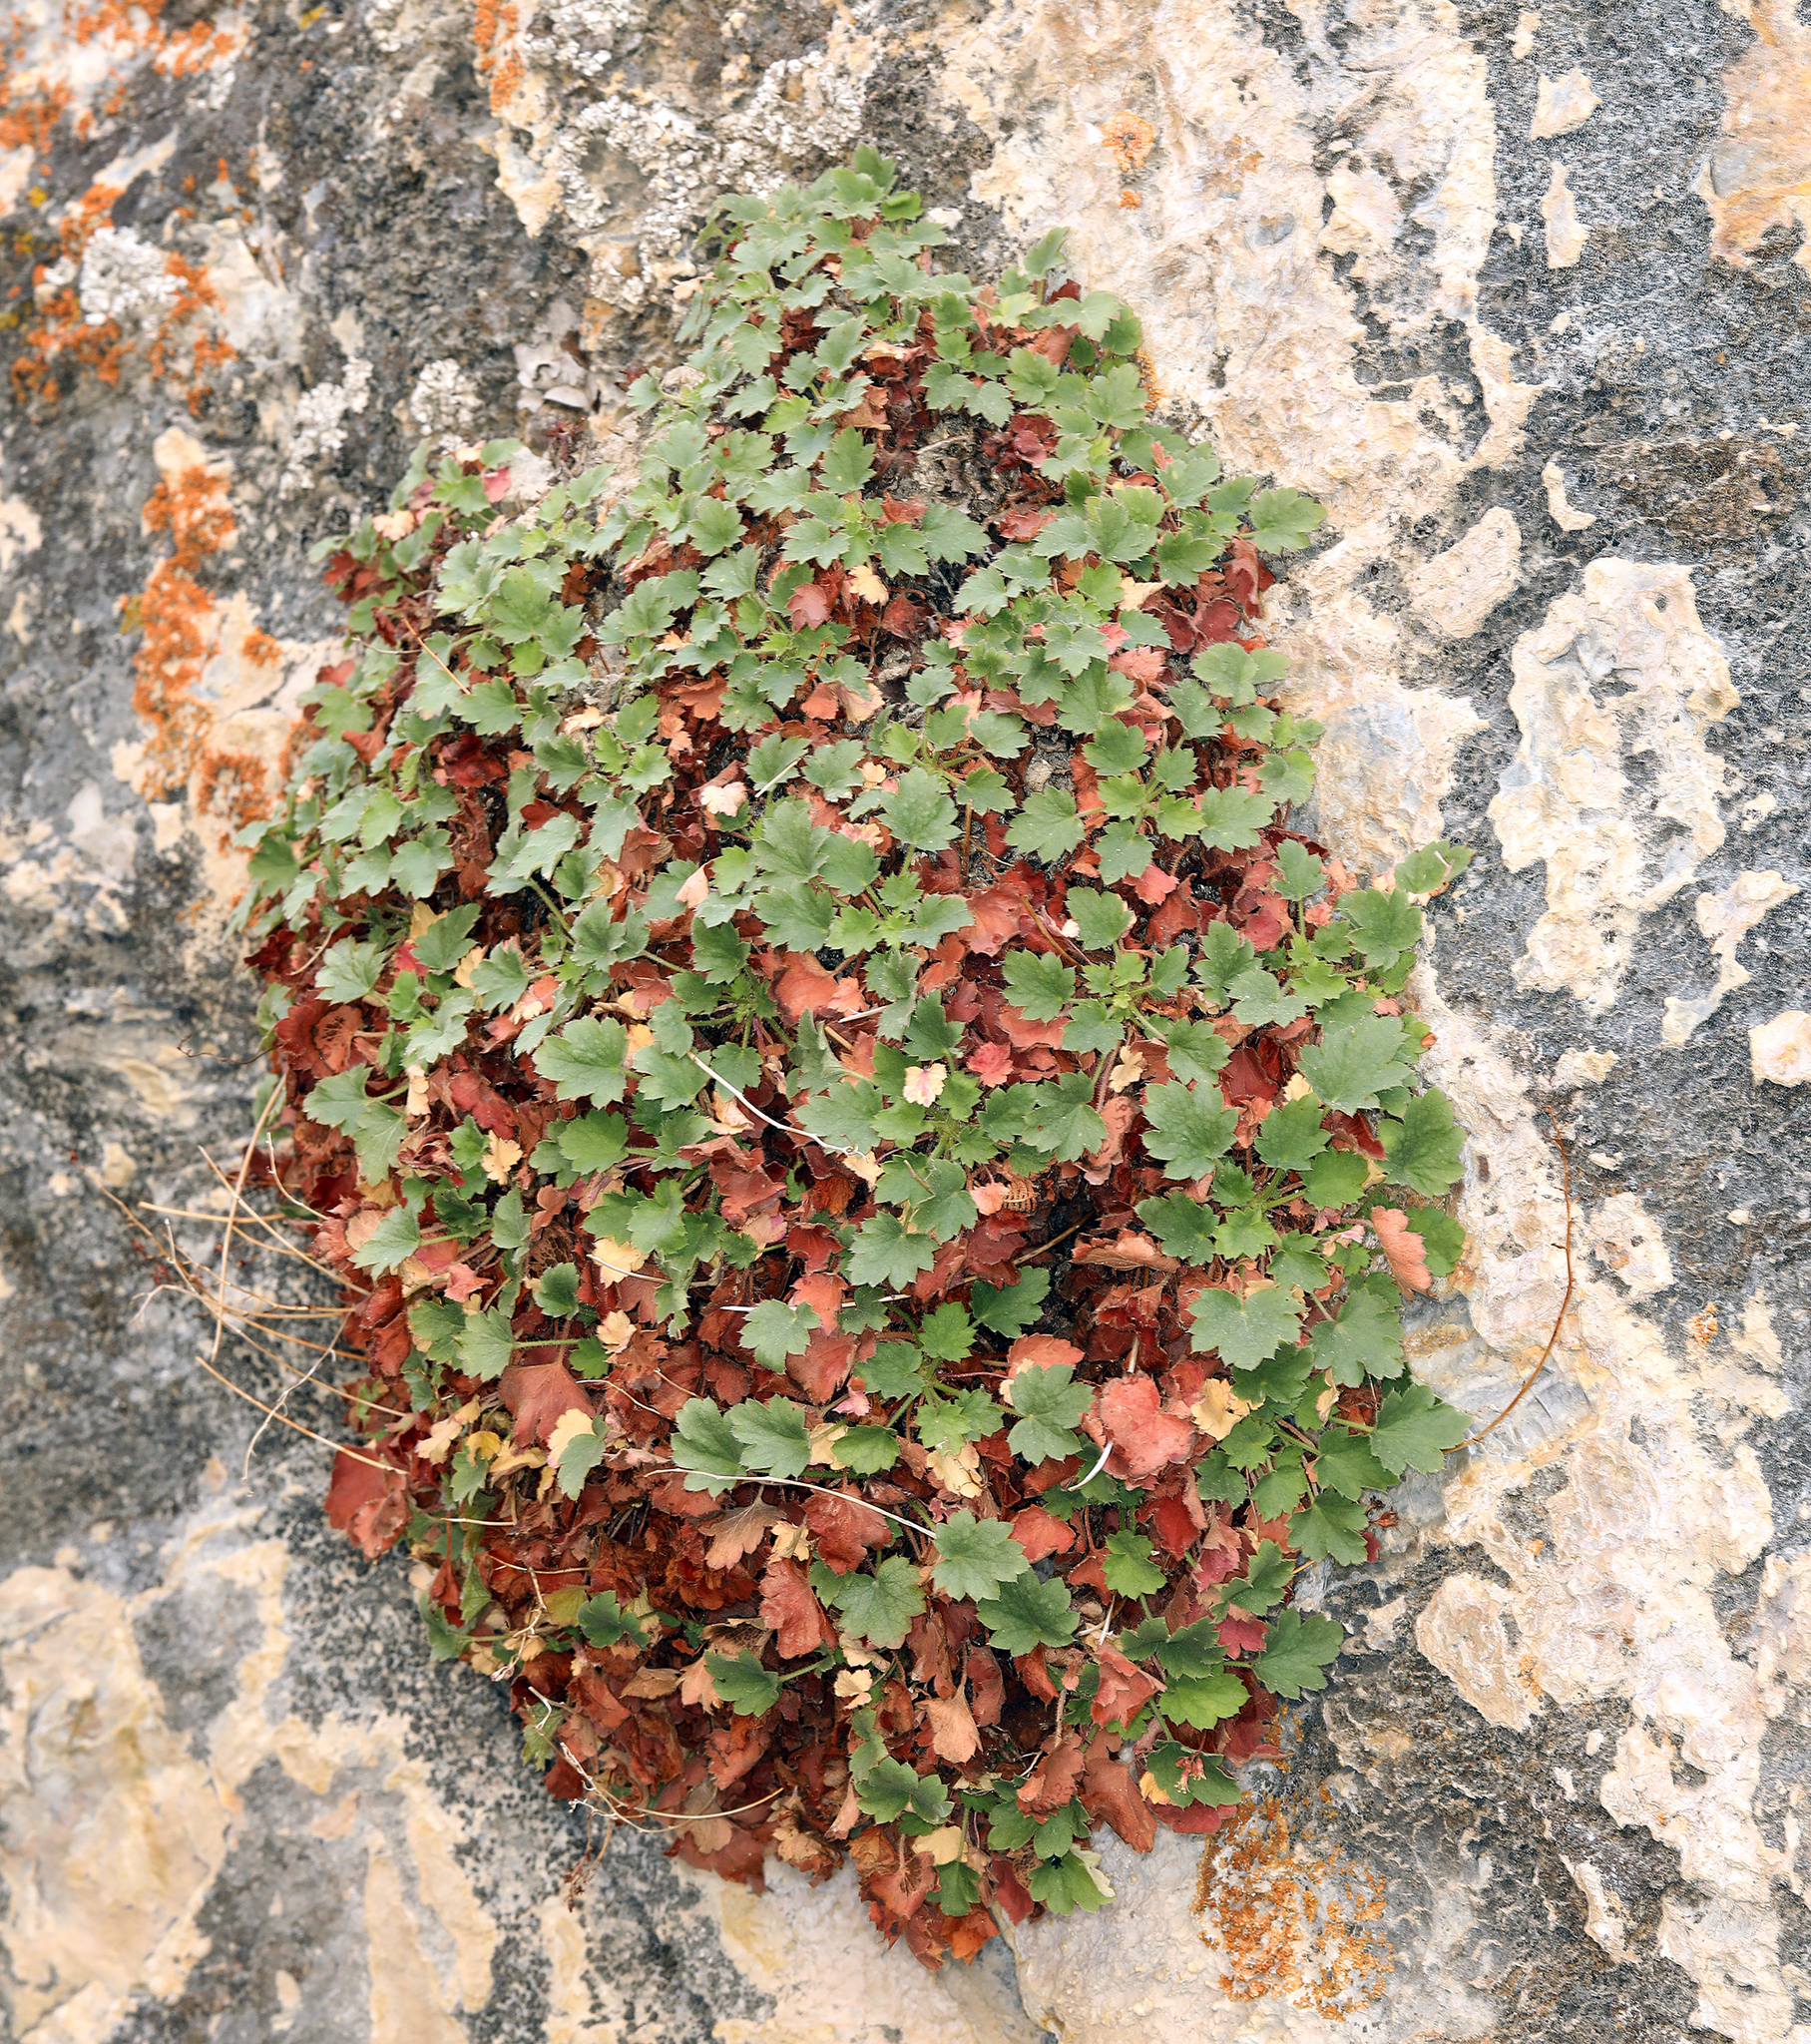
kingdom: Plantae
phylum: Tracheophyta
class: Magnoliopsida
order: Saxifragales
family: Saxifragaceae
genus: Heuchera
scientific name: Heuchera rubescens
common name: Jack-o'the-rocks
